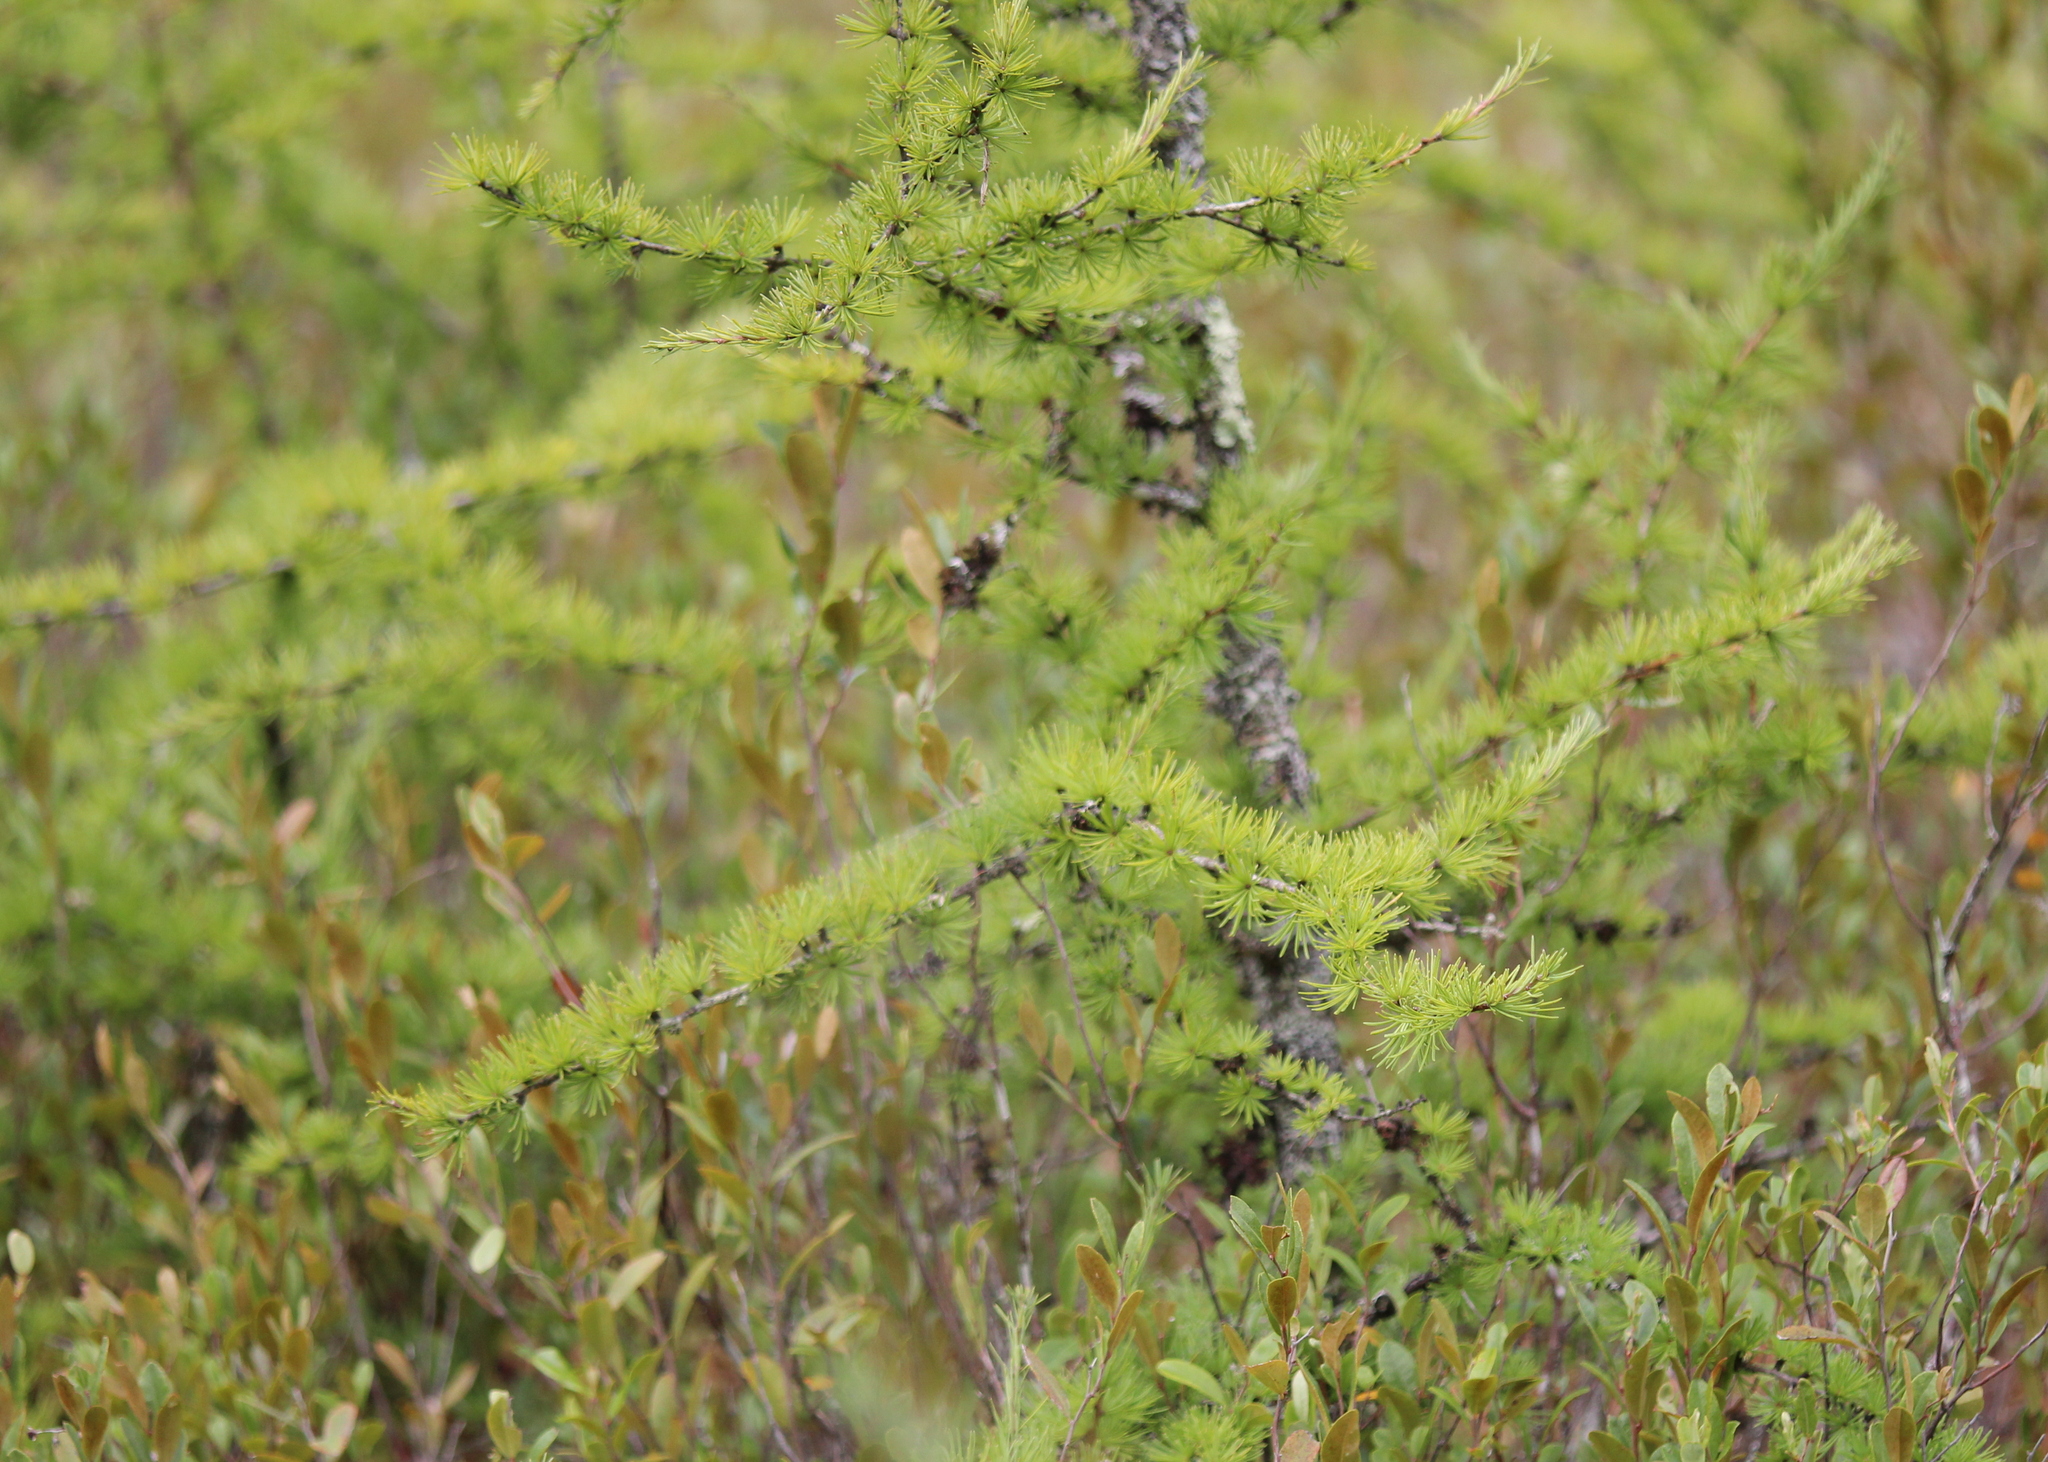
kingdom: Plantae
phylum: Tracheophyta
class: Pinopsida
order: Pinales
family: Pinaceae
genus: Larix
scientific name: Larix laricina
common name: American larch
